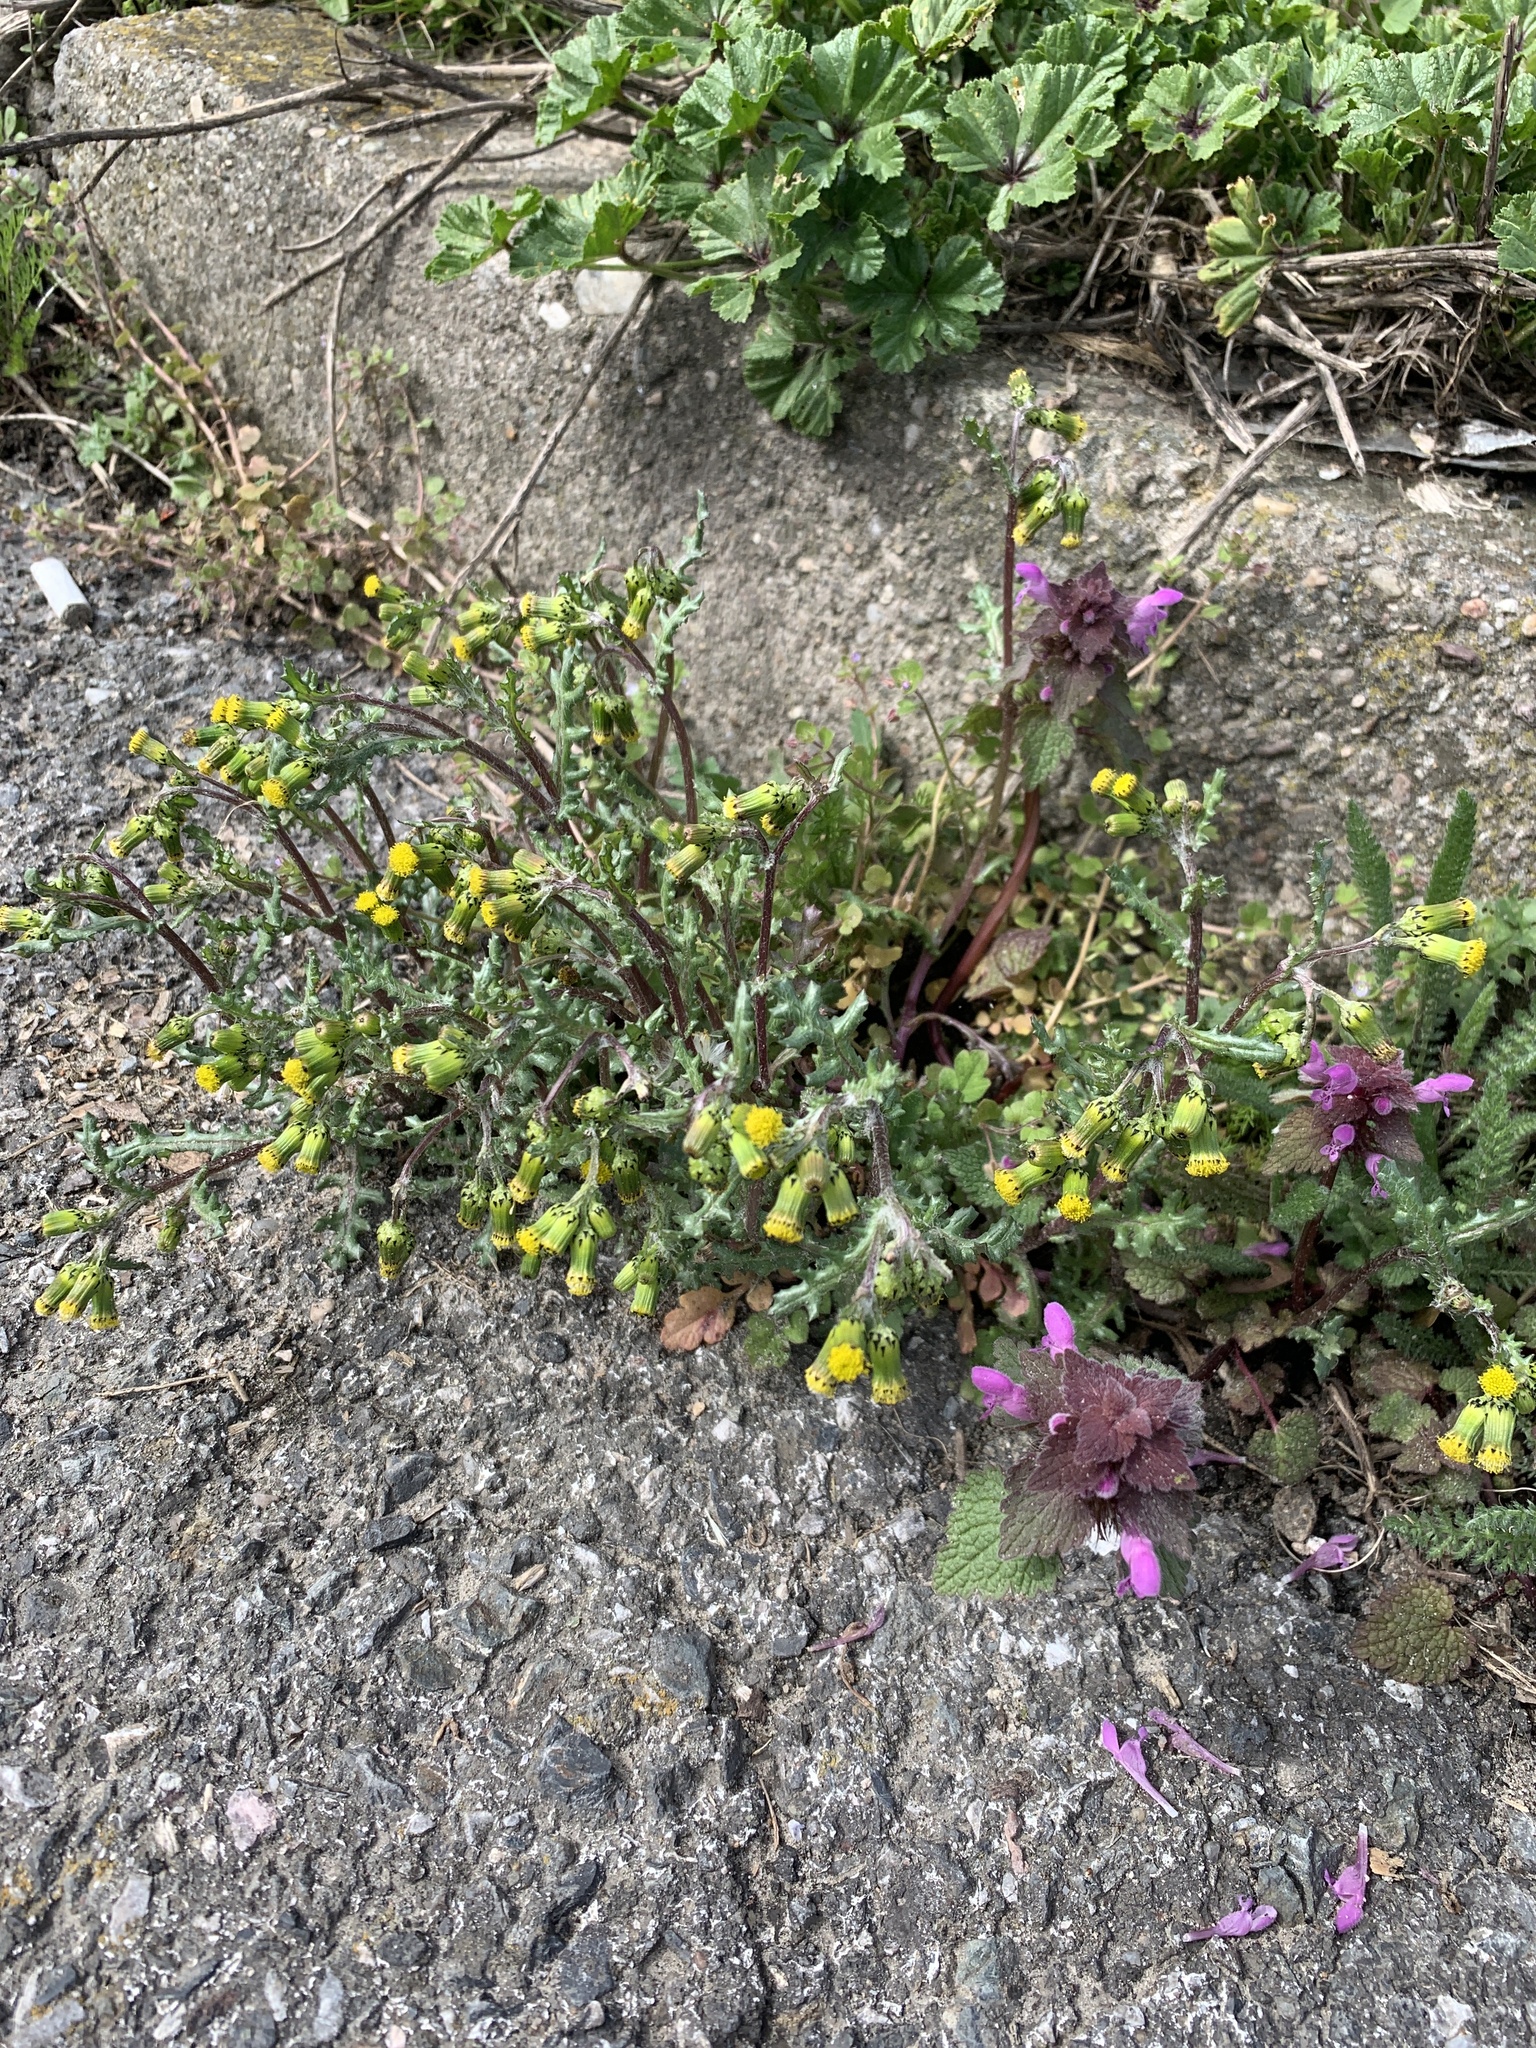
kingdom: Plantae
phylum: Tracheophyta
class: Magnoliopsida
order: Asterales
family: Asteraceae
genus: Senecio
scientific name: Senecio vulgaris
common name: Old-man-in-the-spring
